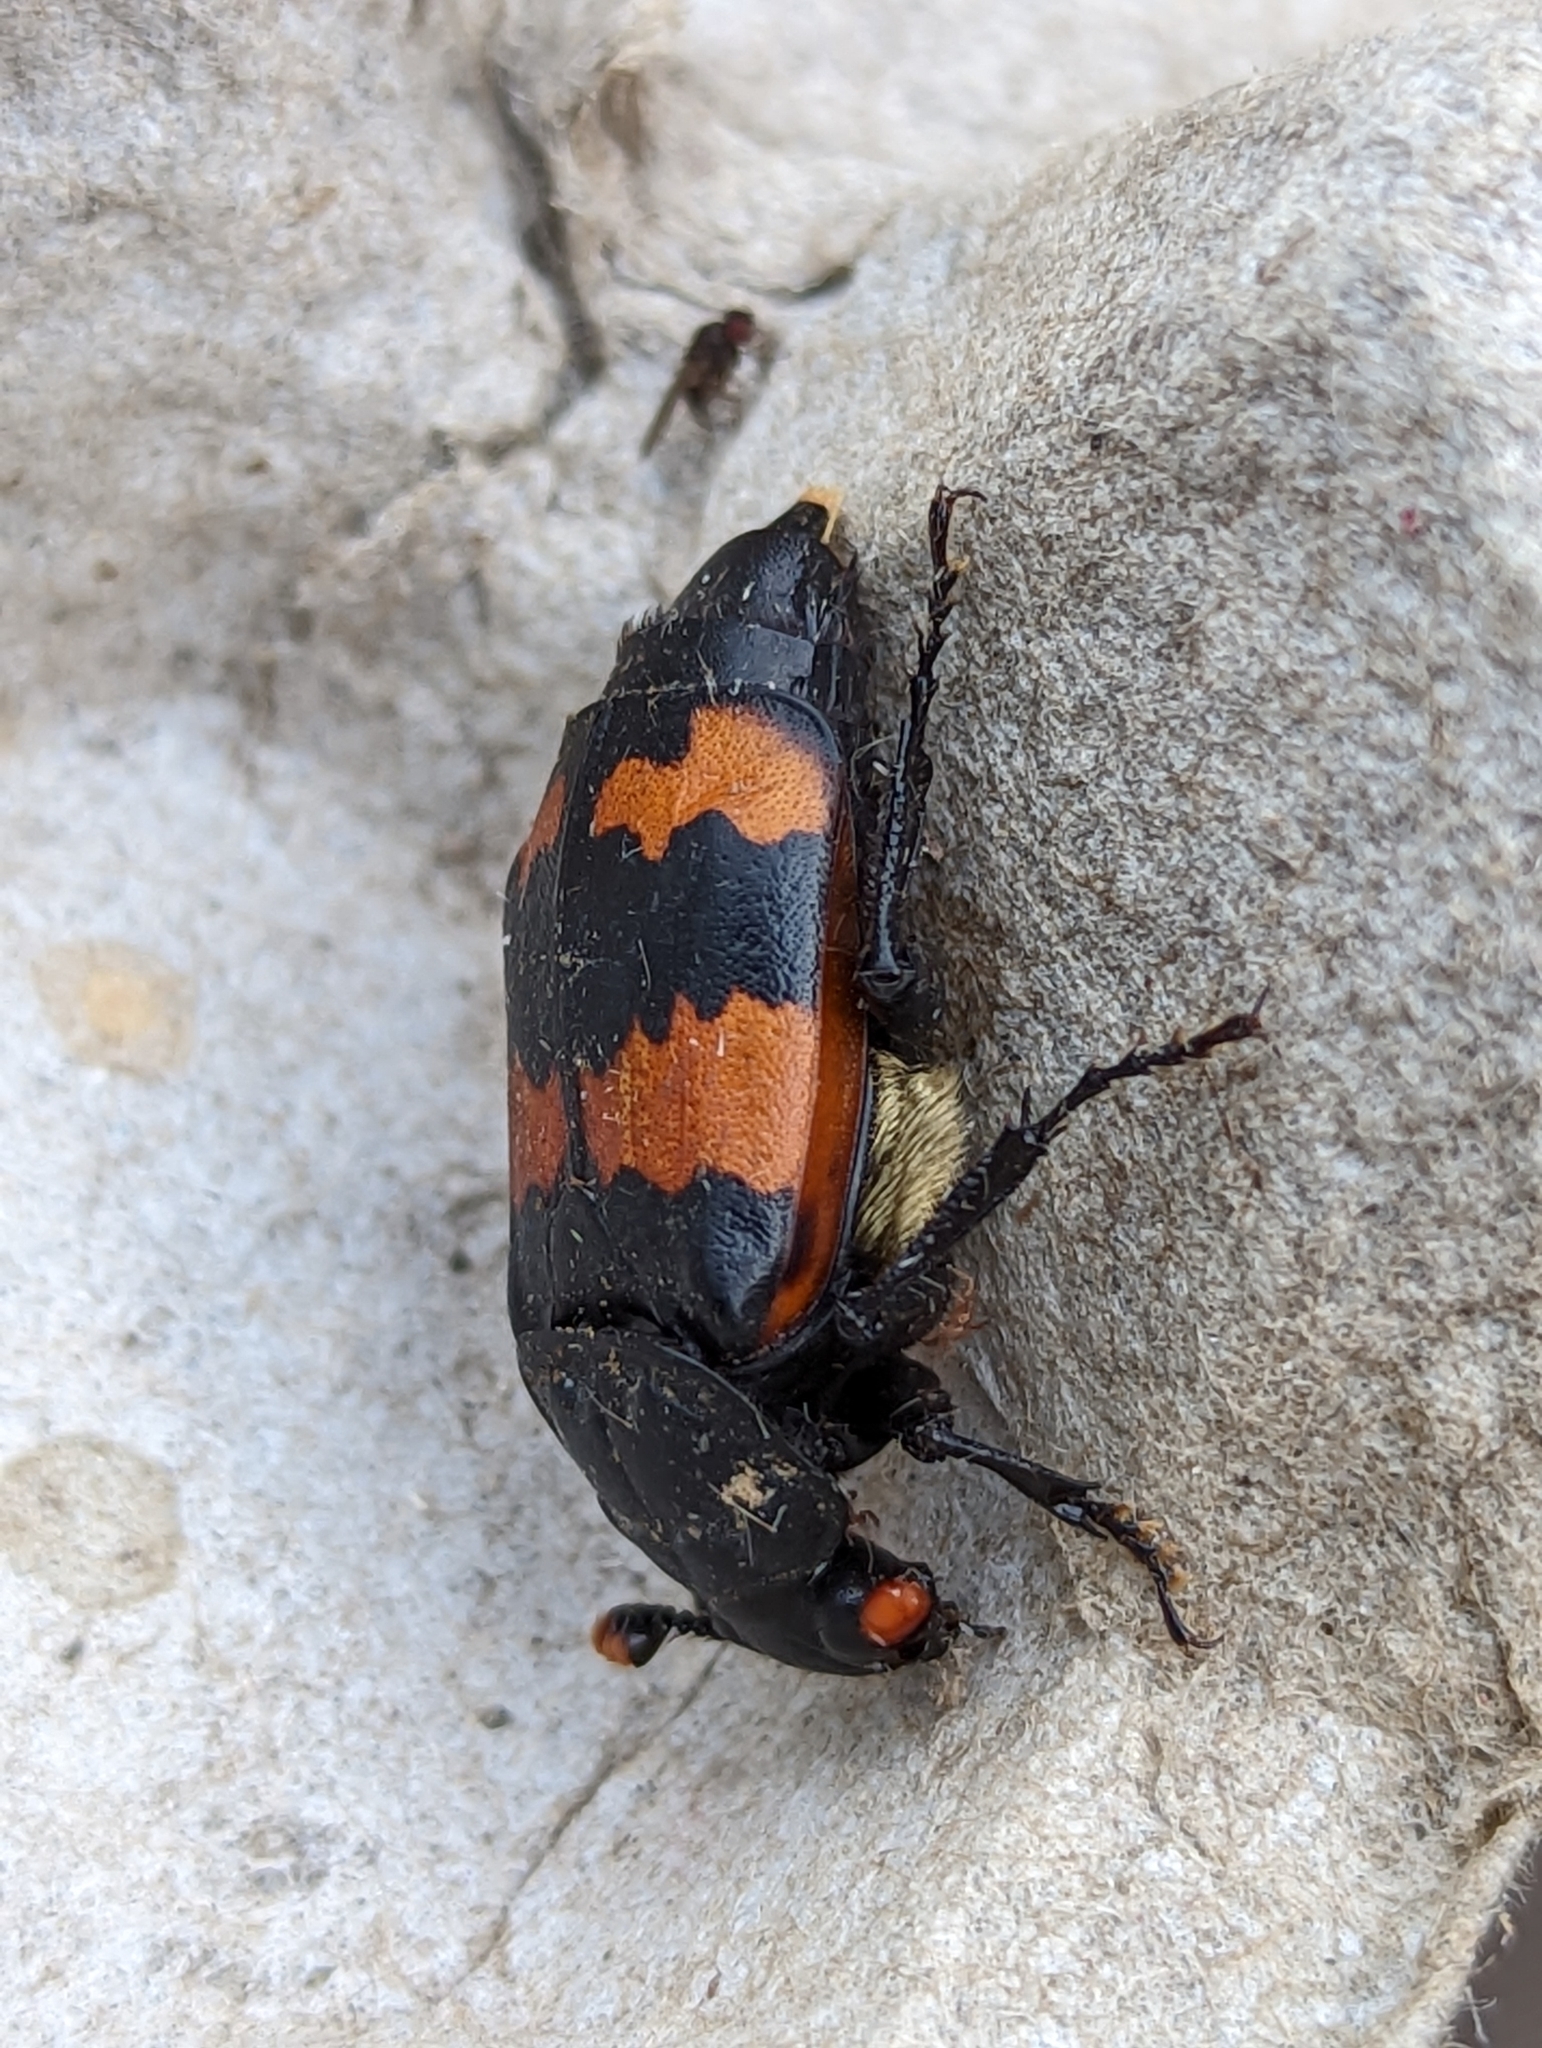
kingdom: Animalia
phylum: Arthropoda
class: Insecta
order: Coleoptera
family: Staphylinidae
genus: Nicrophorus
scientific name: Nicrophorus investigator
